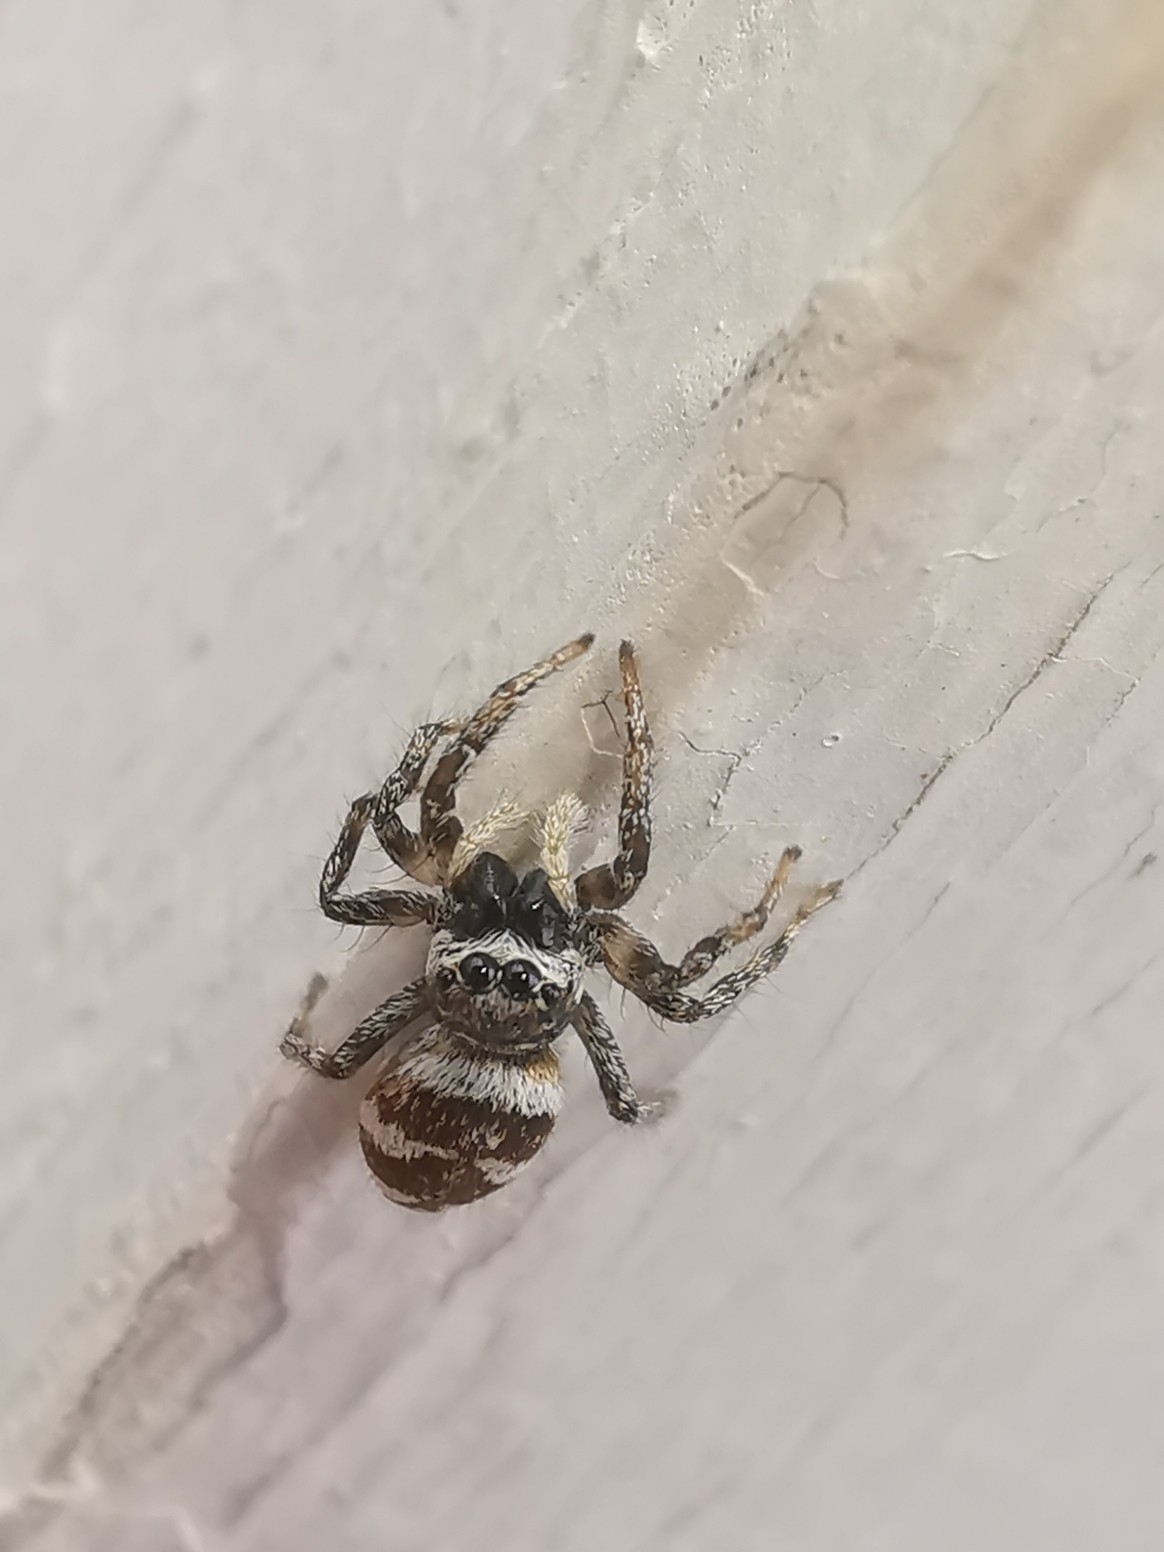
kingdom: Animalia
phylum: Arthropoda
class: Arachnida
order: Araneae
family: Salticidae
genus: Salticus
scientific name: Salticus scenicus
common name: Zebra jumper
